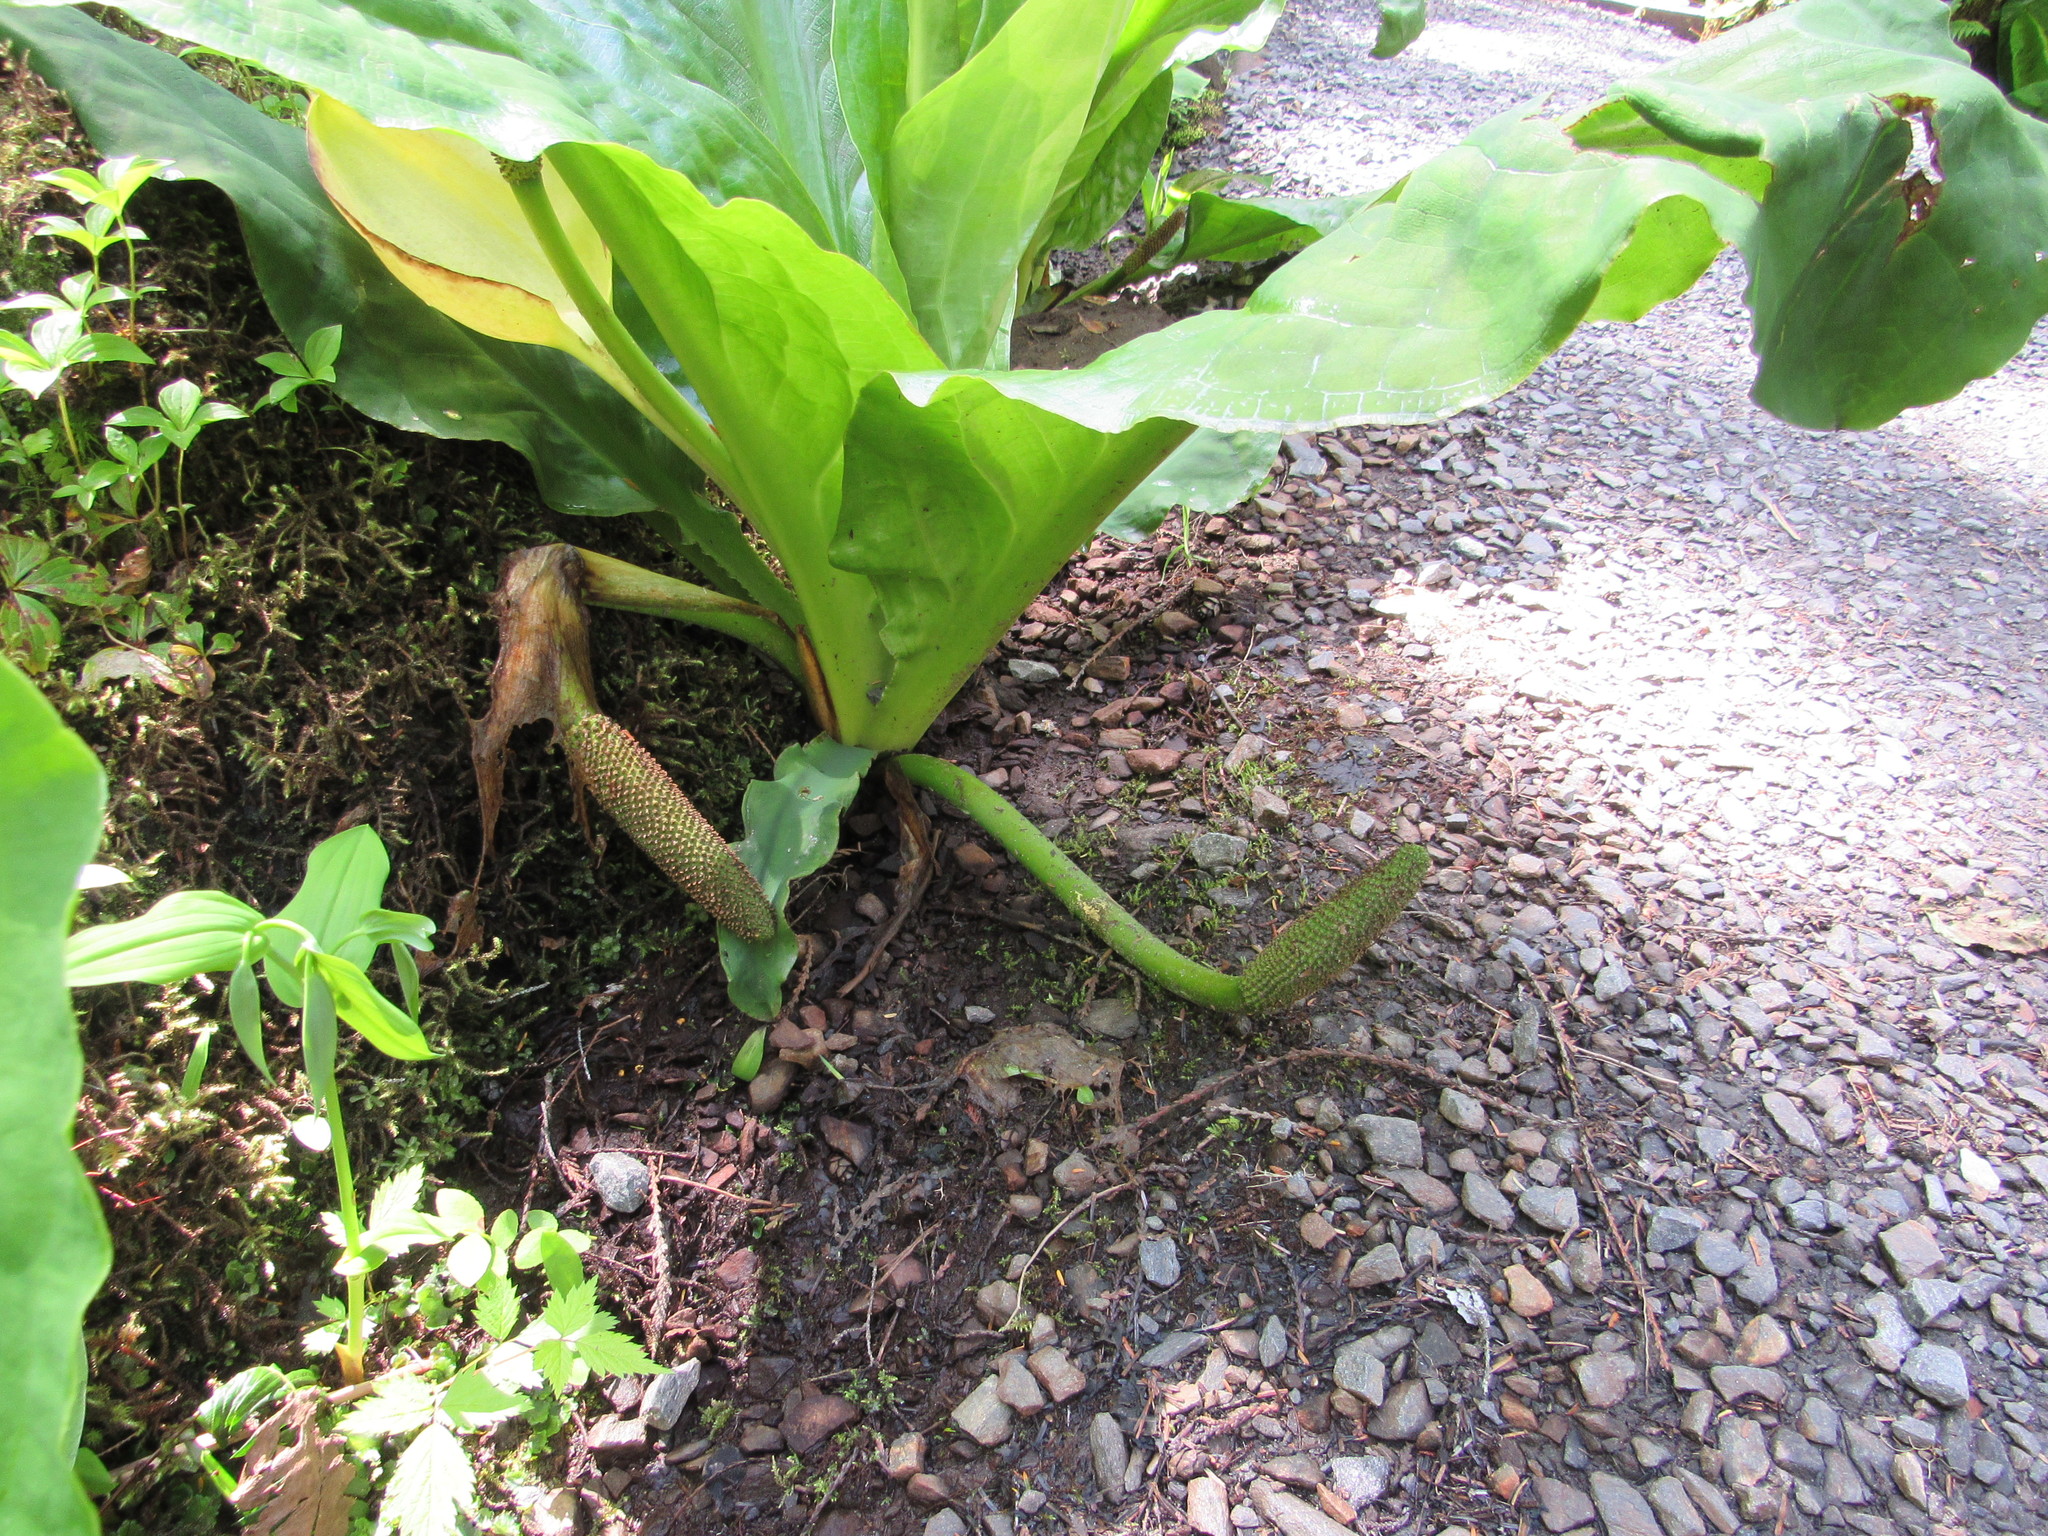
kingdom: Plantae
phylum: Tracheophyta
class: Liliopsida
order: Alismatales
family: Araceae
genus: Lysichiton
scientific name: Lysichiton americanus
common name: American skunk cabbage
